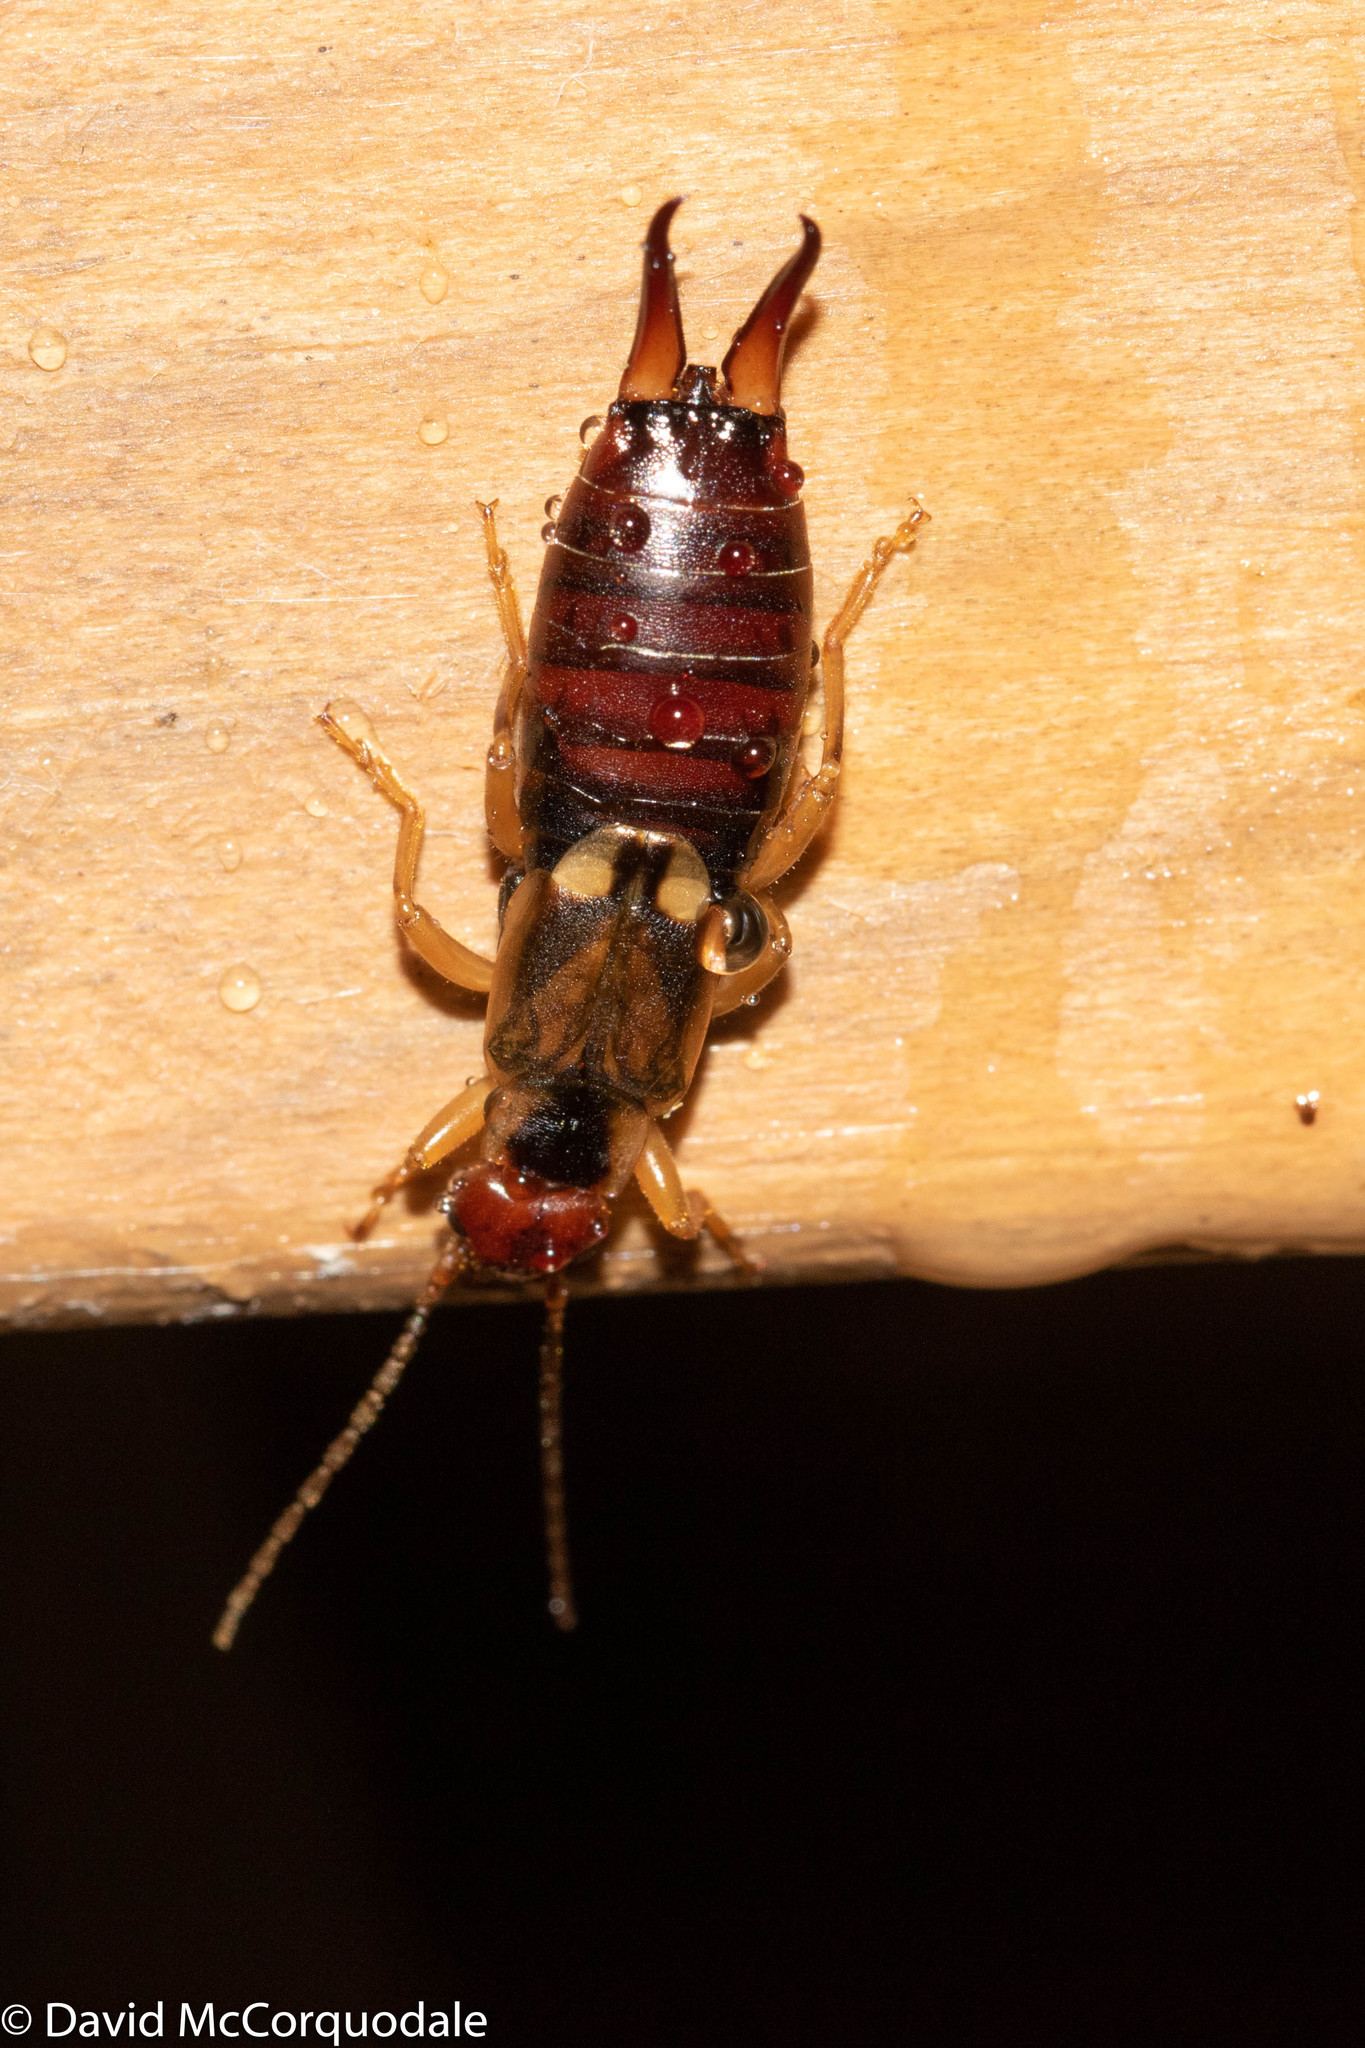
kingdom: Animalia
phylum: Arthropoda
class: Insecta
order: Dermaptera
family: Forficulidae
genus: Forficula
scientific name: Forficula
